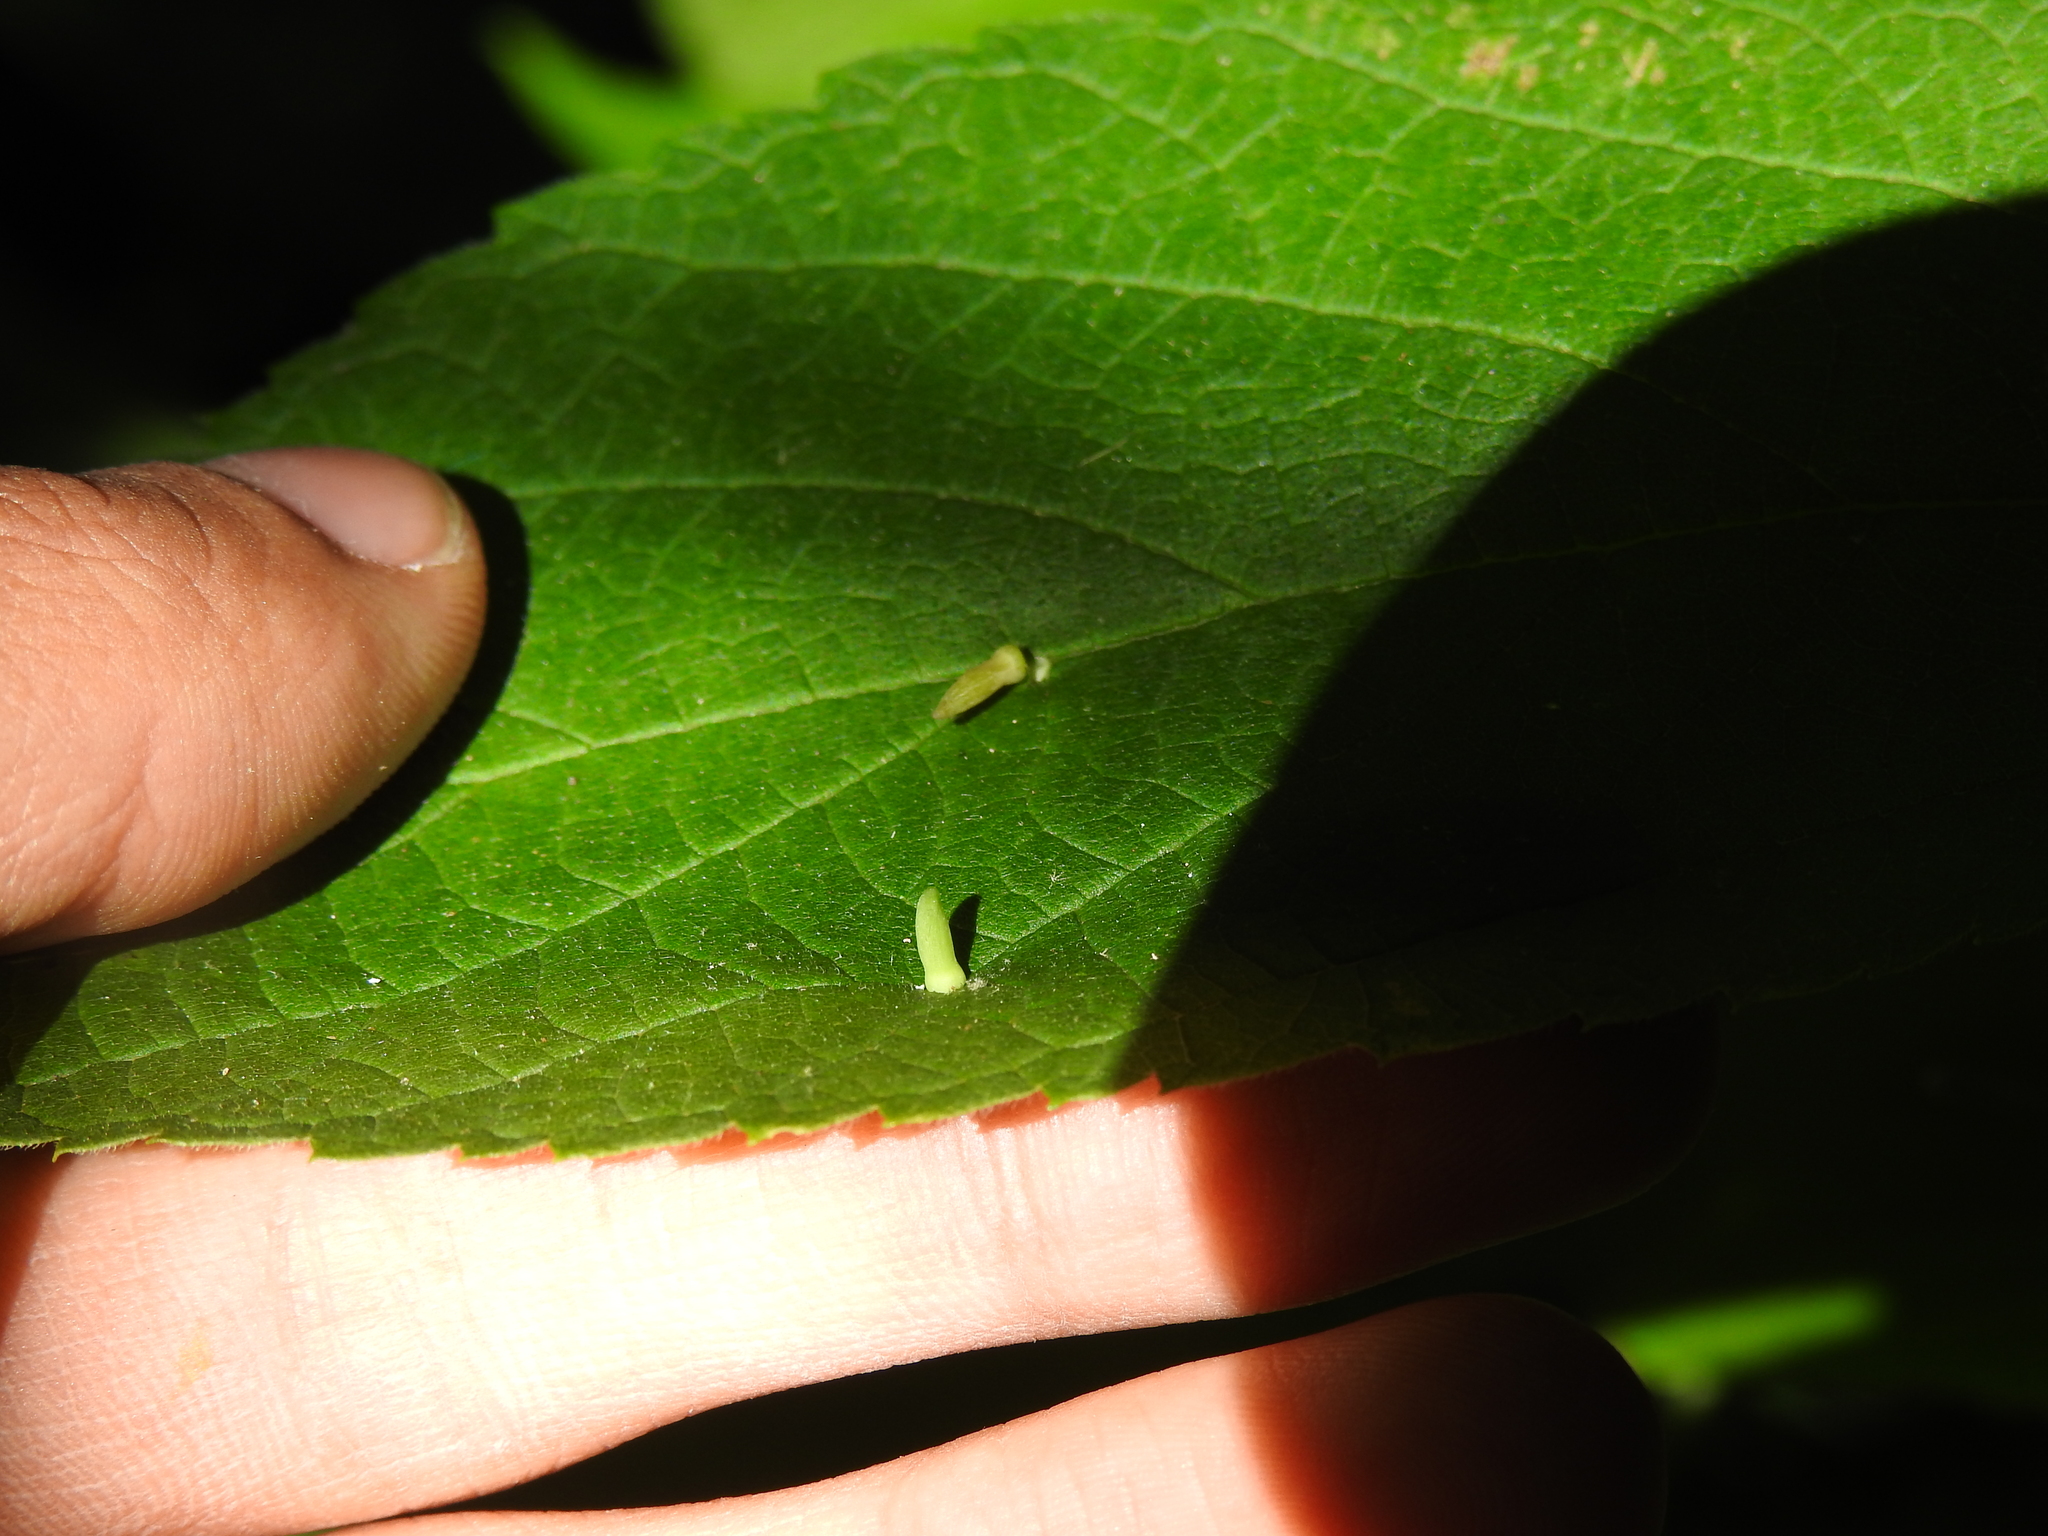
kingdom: Animalia
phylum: Arthropoda
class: Insecta
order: Diptera
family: Cecidomyiidae
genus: Celticecis
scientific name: Celticecis
